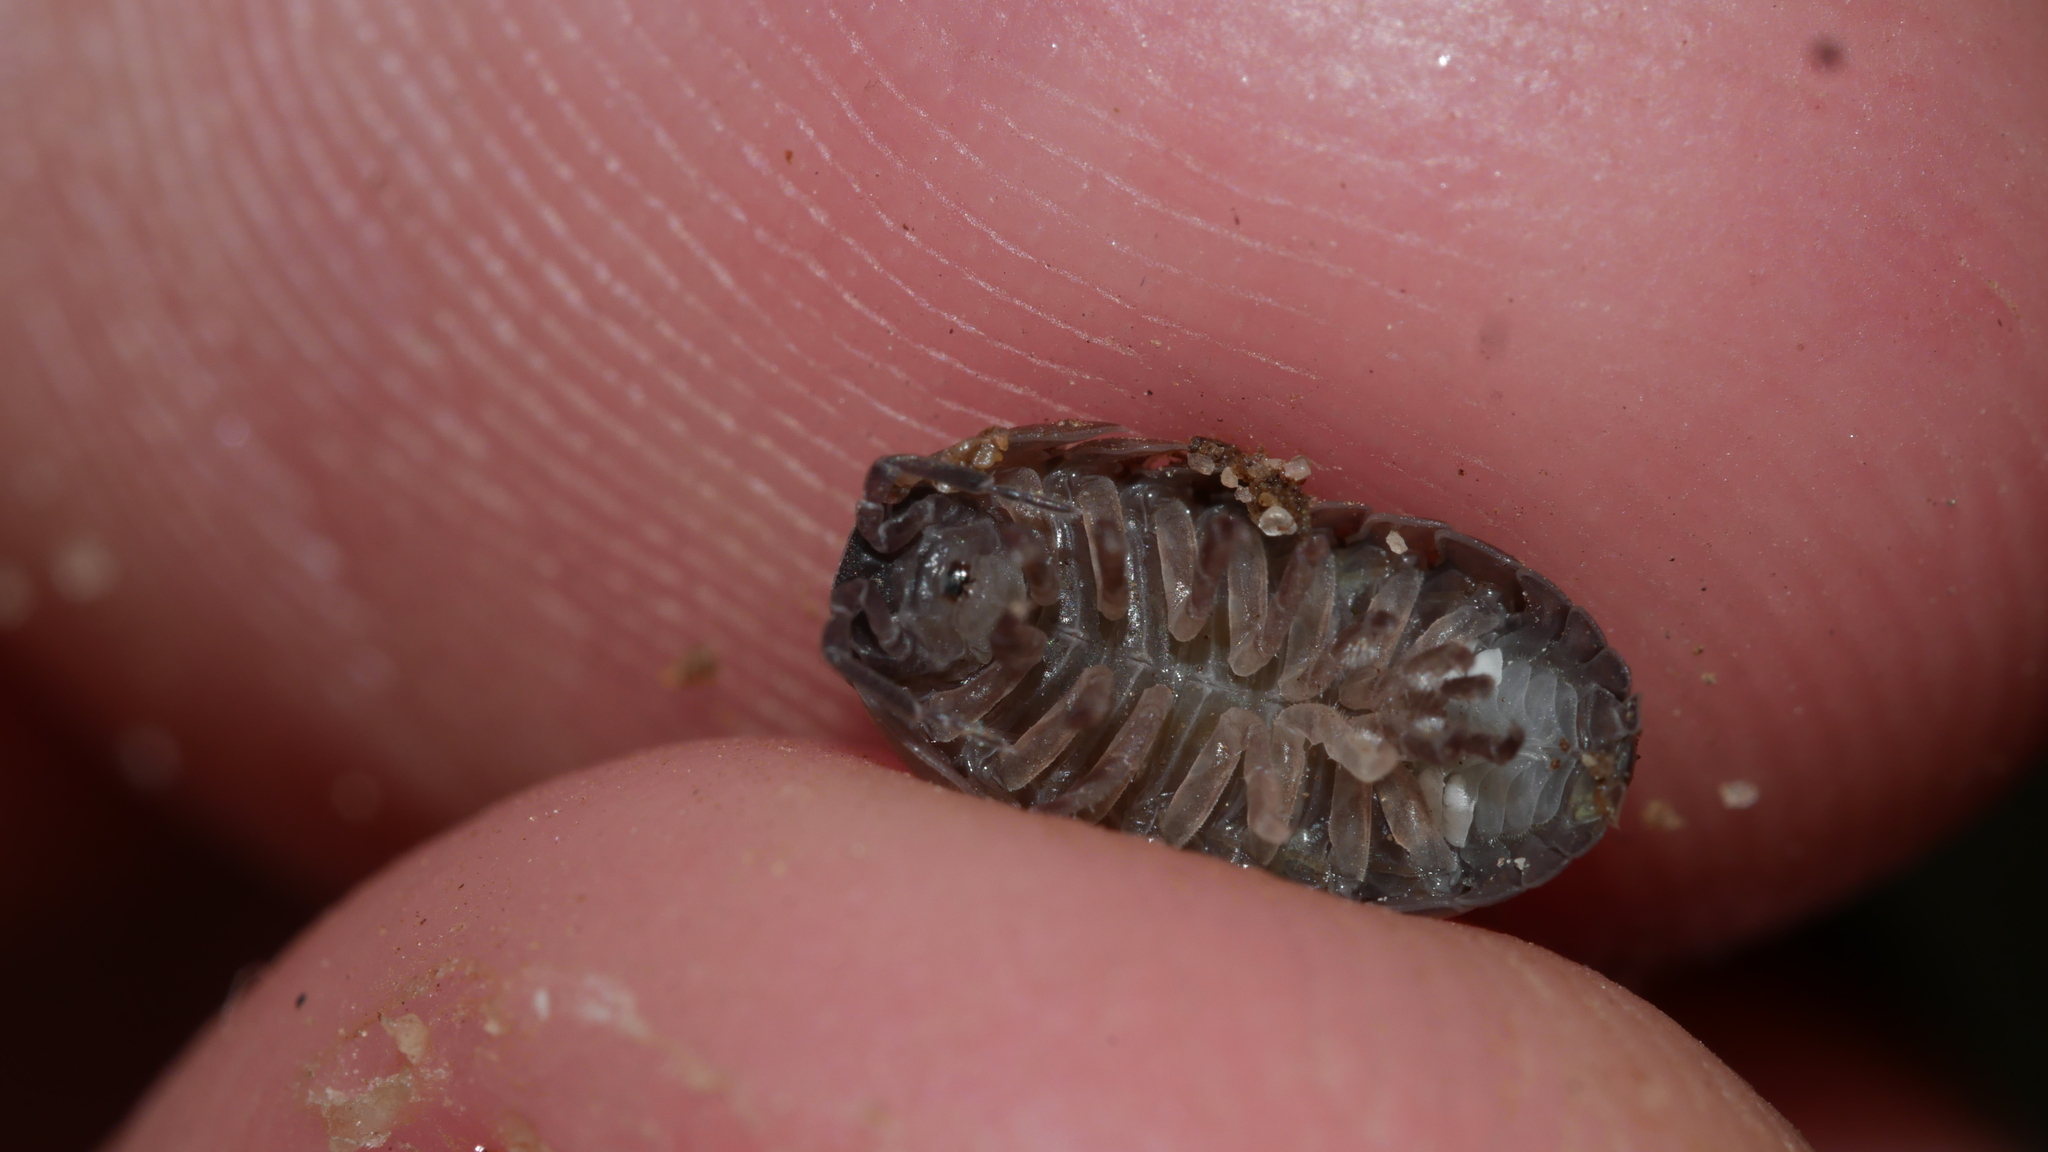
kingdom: Animalia
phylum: Arthropoda
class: Malacostraca
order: Isopoda
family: Armadillidiidae
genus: Armadillidium
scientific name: Armadillidium vulgare
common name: Common pill woodlouse
